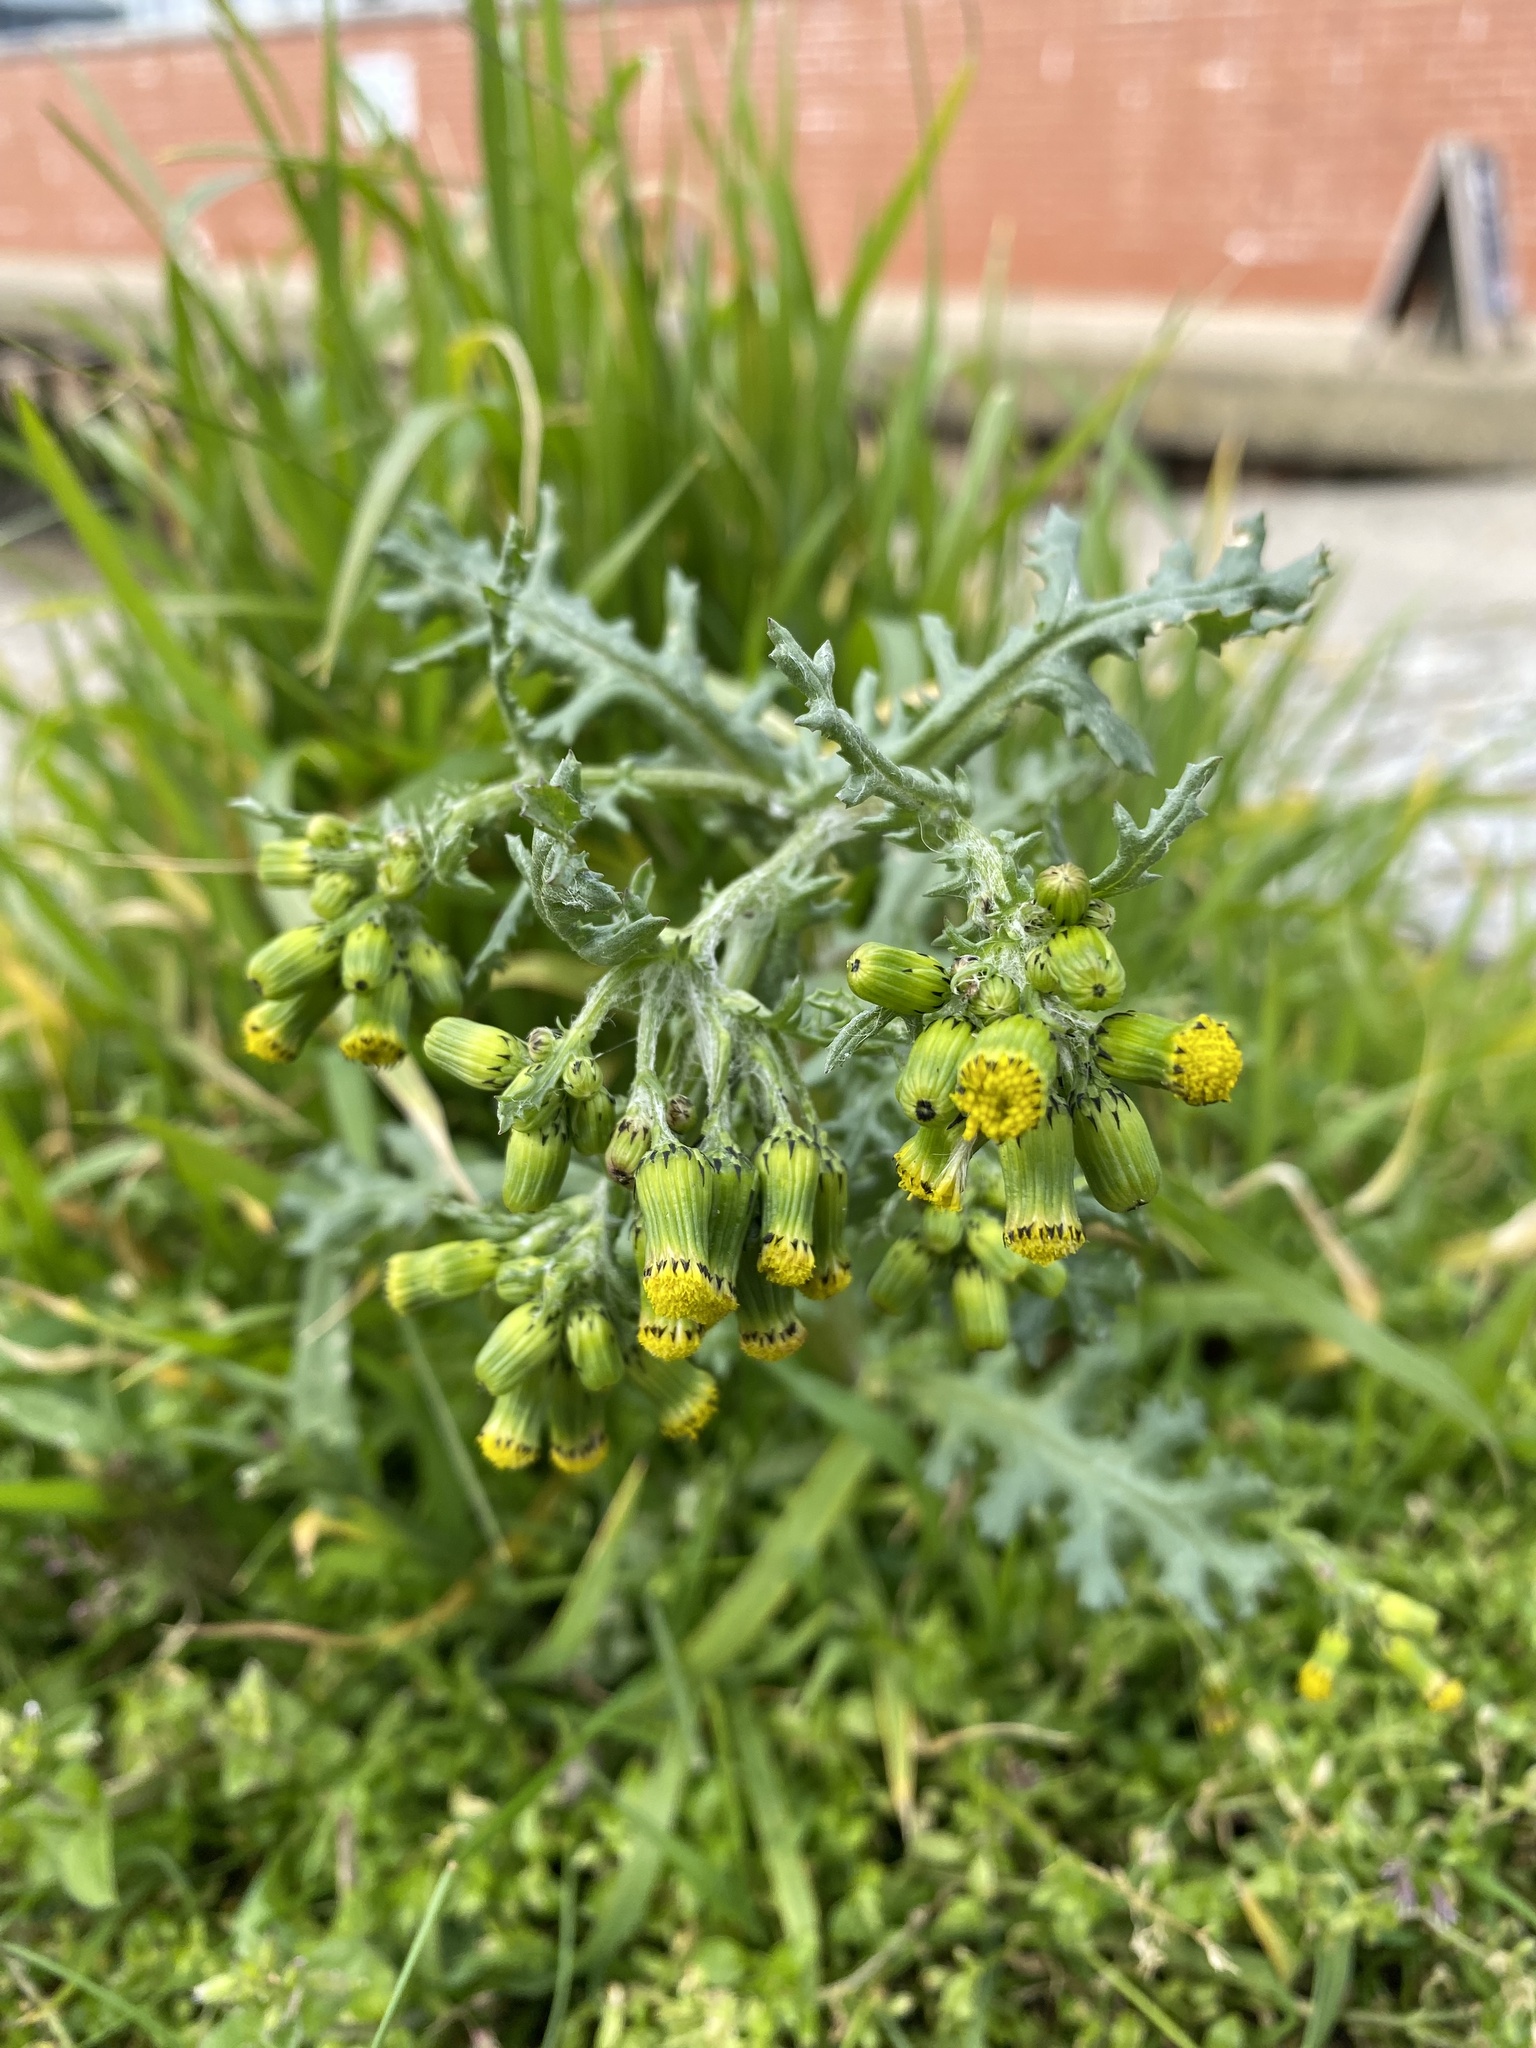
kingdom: Plantae
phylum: Tracheophyta
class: Magnoliopsida
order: Asterales
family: Asteraceae
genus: Senecio
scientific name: Senecio vulgaris
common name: Old-man-in-the-spring
